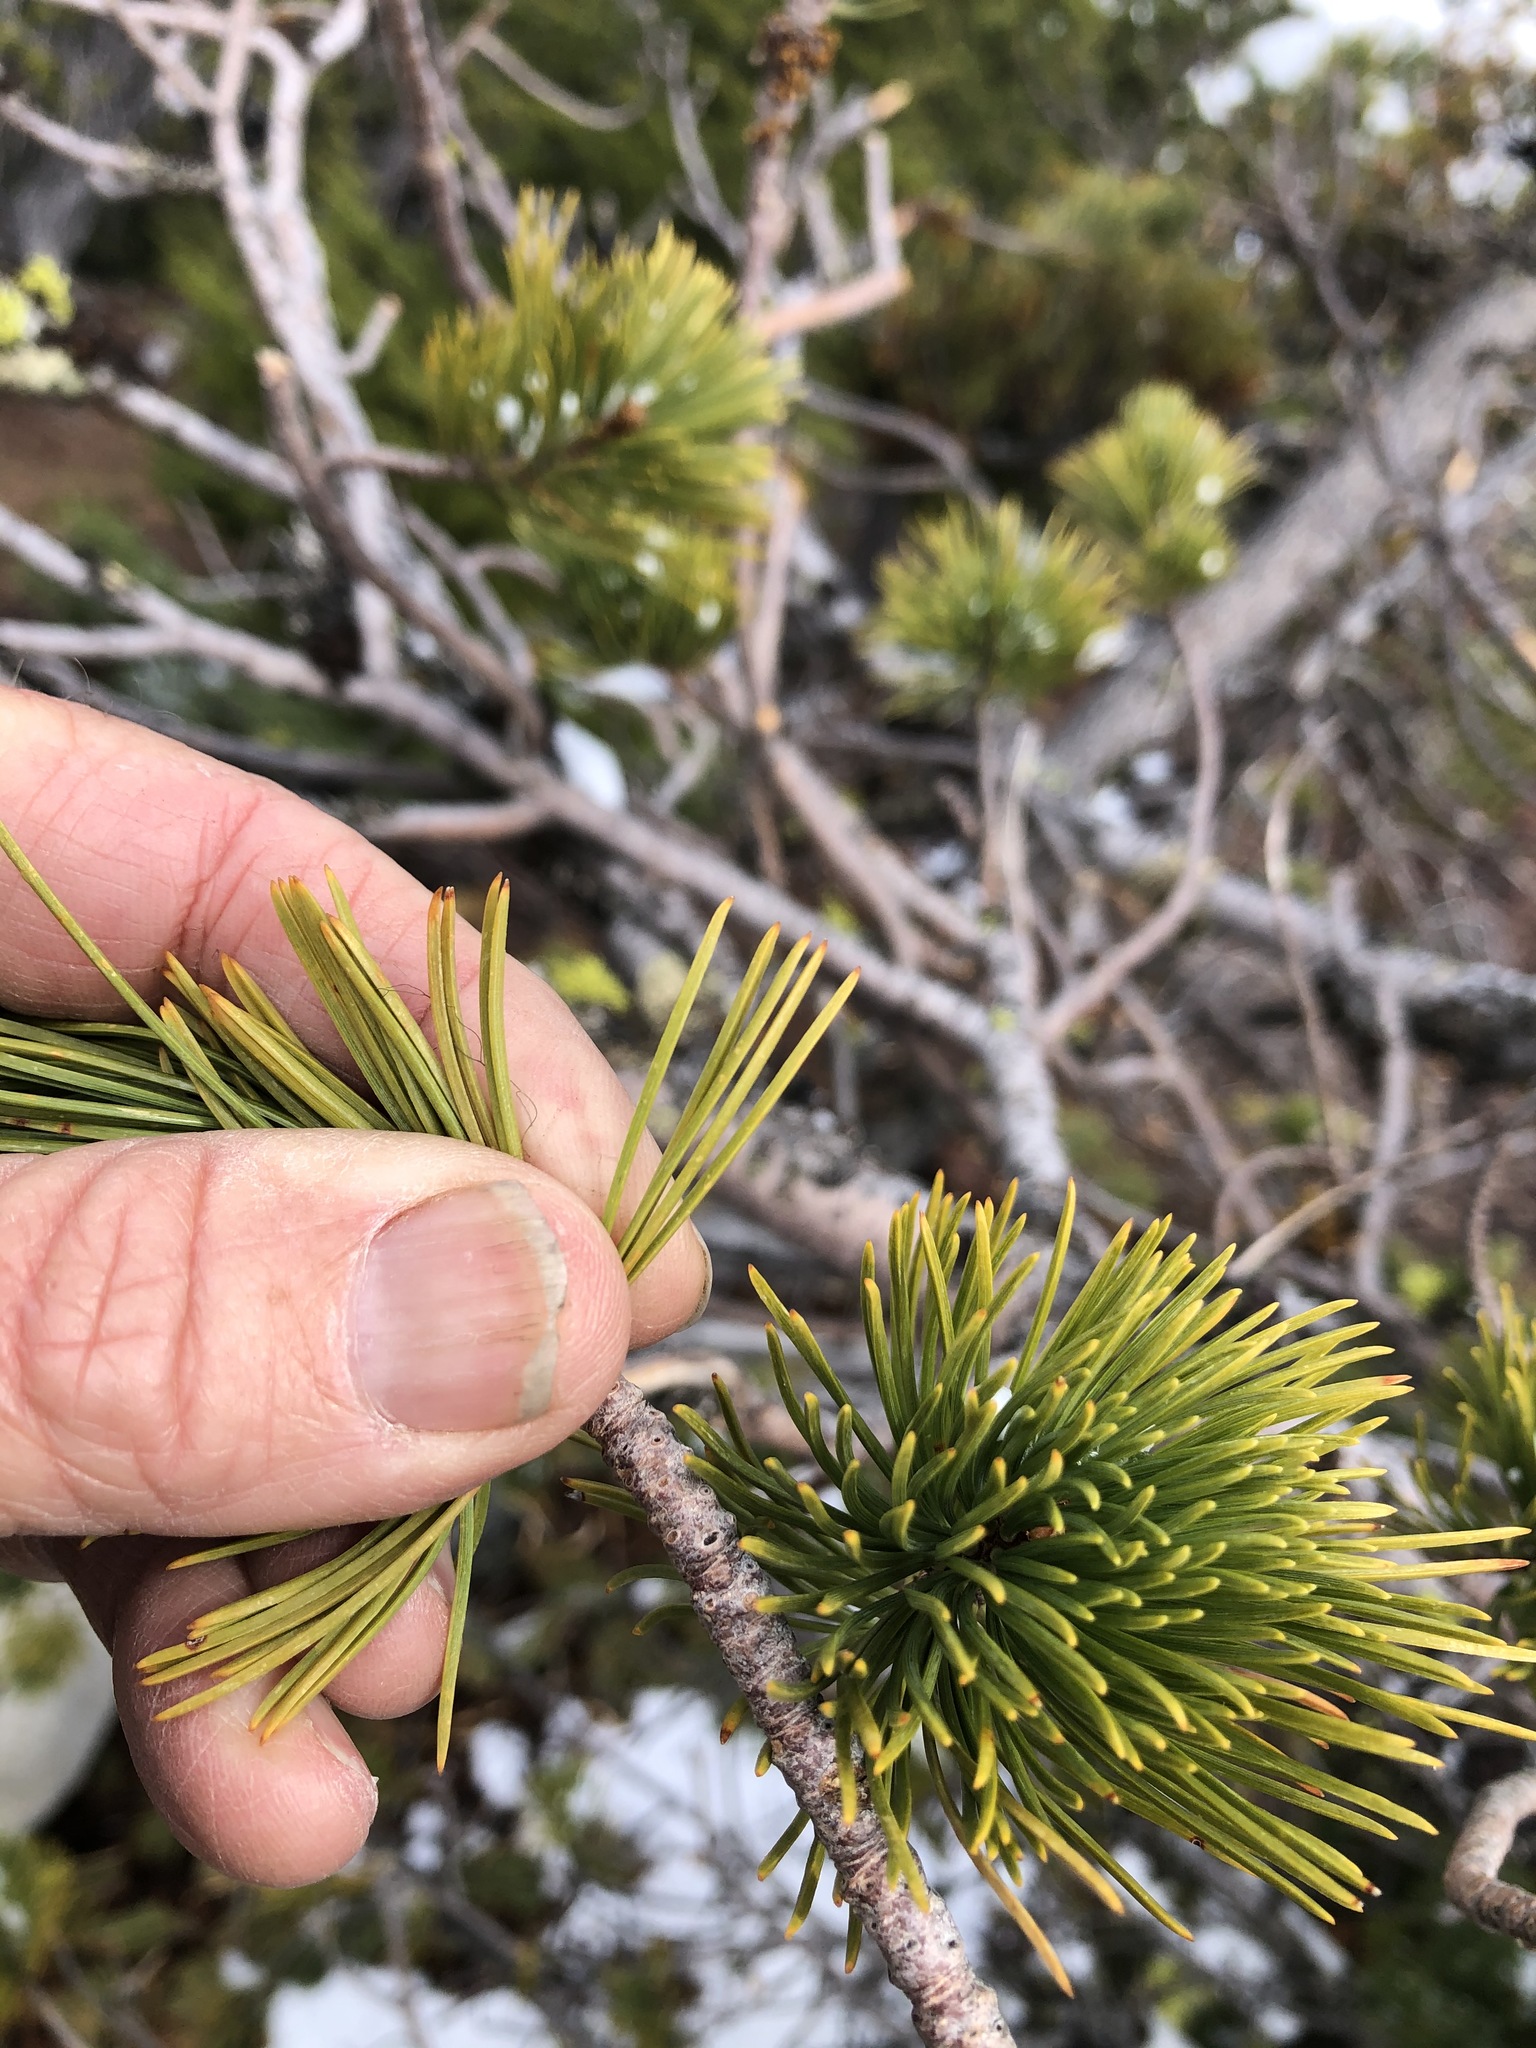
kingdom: Plantae
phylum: Tracheophyta
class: Pinopsida
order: Pinales
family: Pinaceae
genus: Pinus
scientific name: Pinus albicaulis
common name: Whitebark pine
